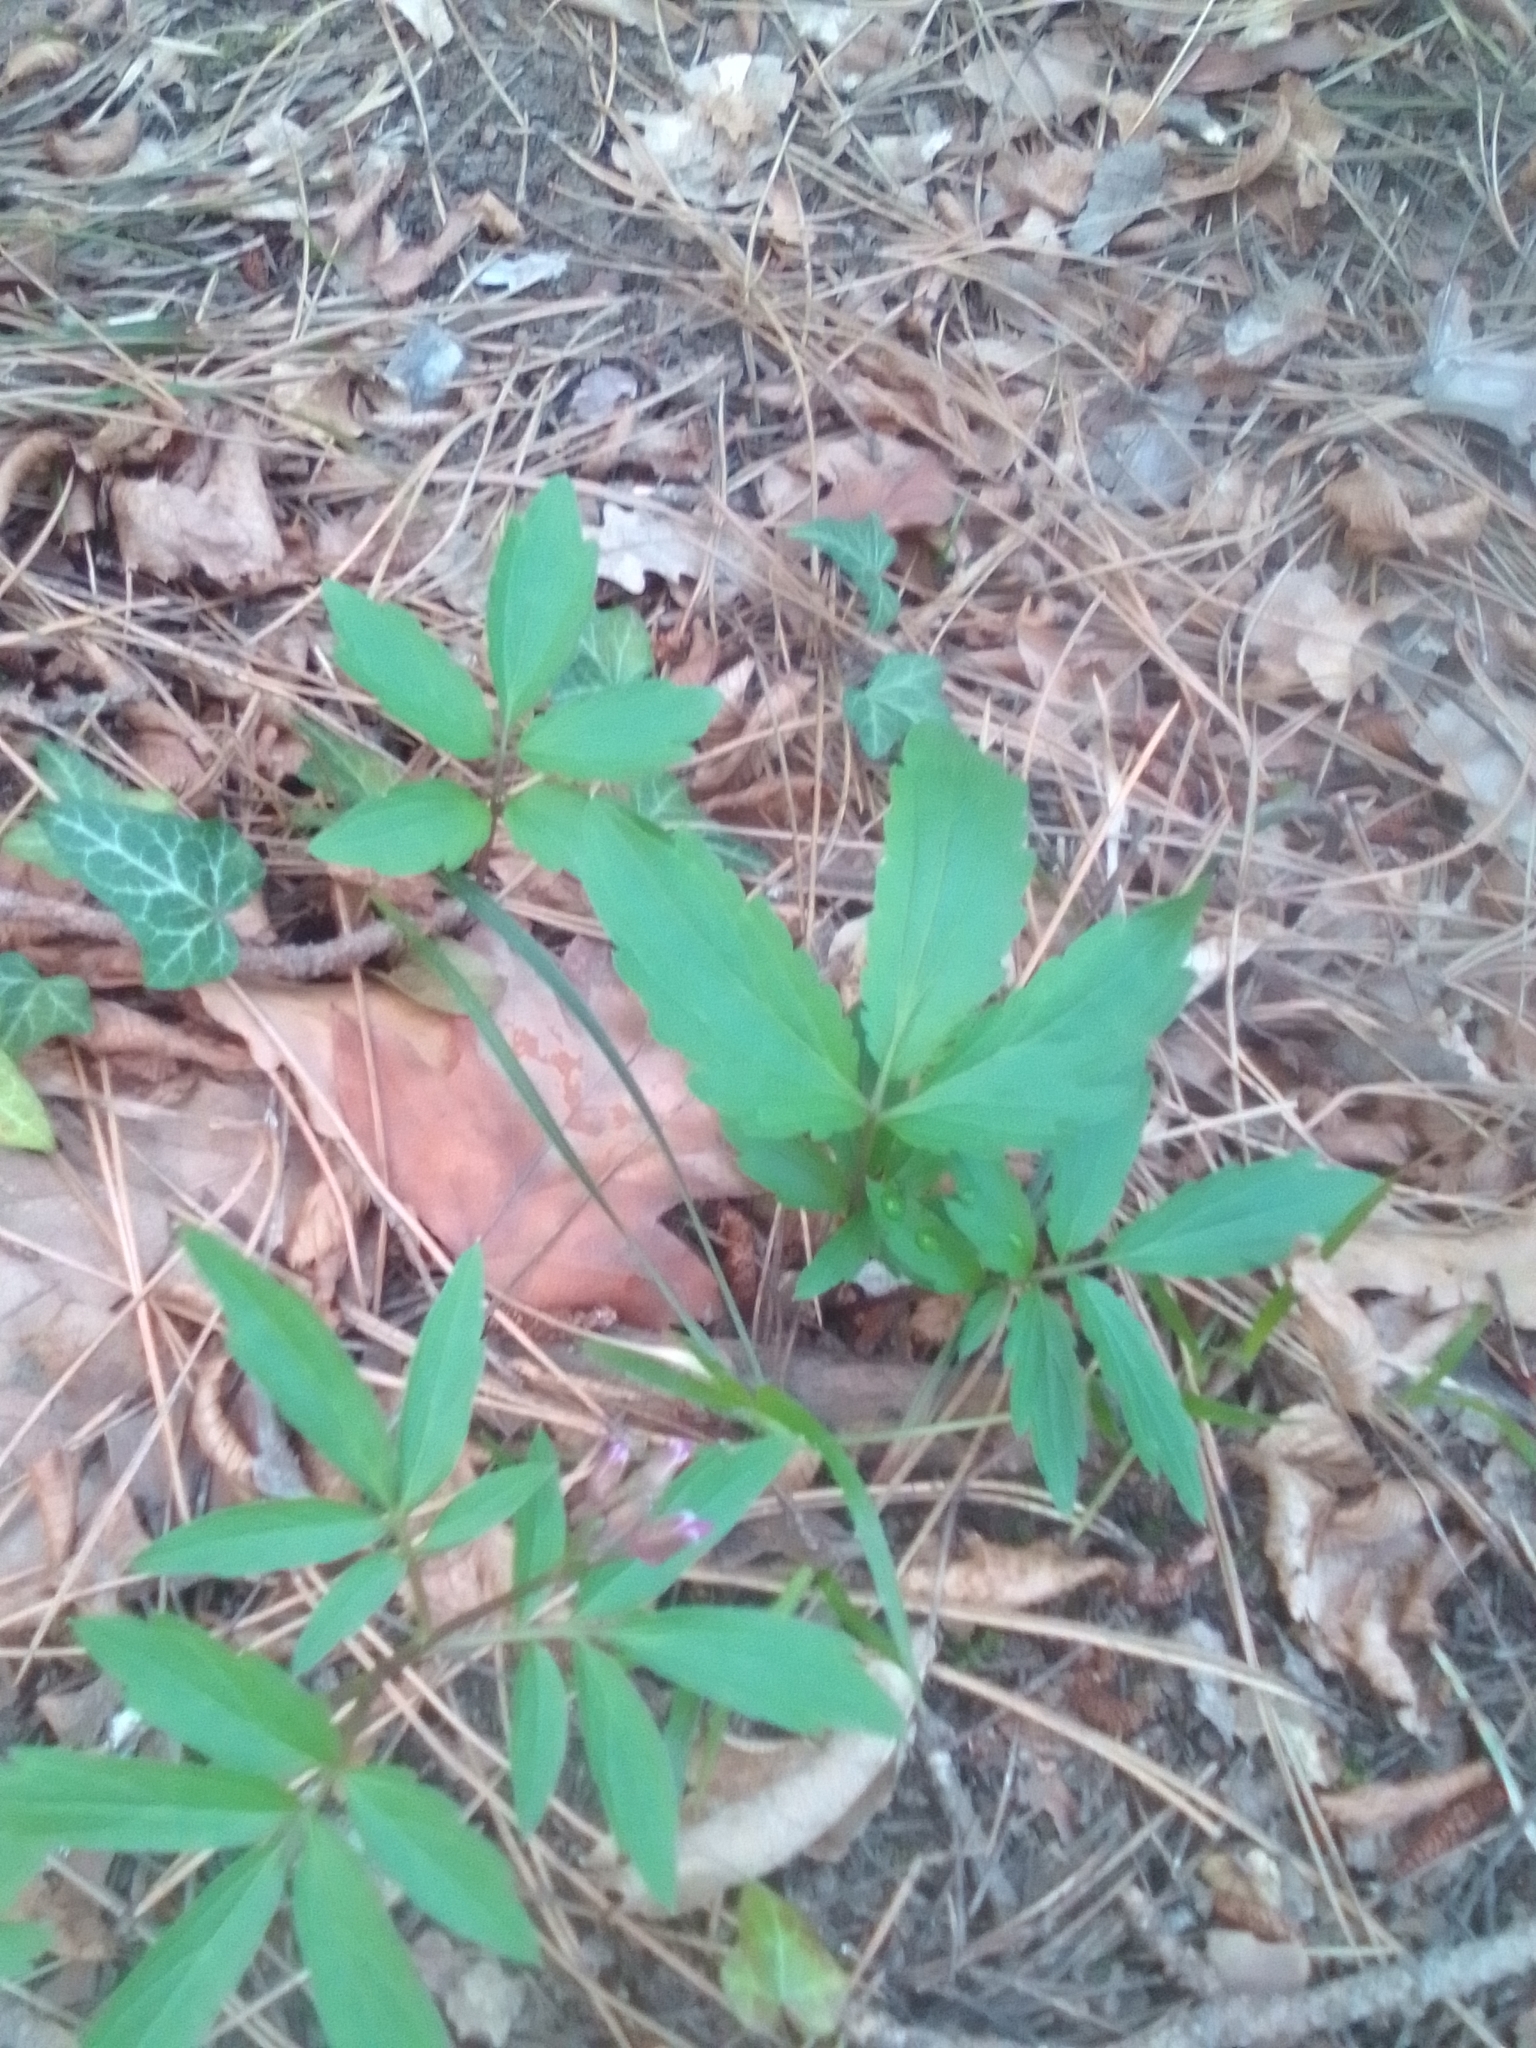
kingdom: Plantae
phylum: Tracheophyta
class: Magnoliopsida
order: Brassicales
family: Brassicaceae
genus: Cardamine
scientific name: Cardamine quinquefolia
